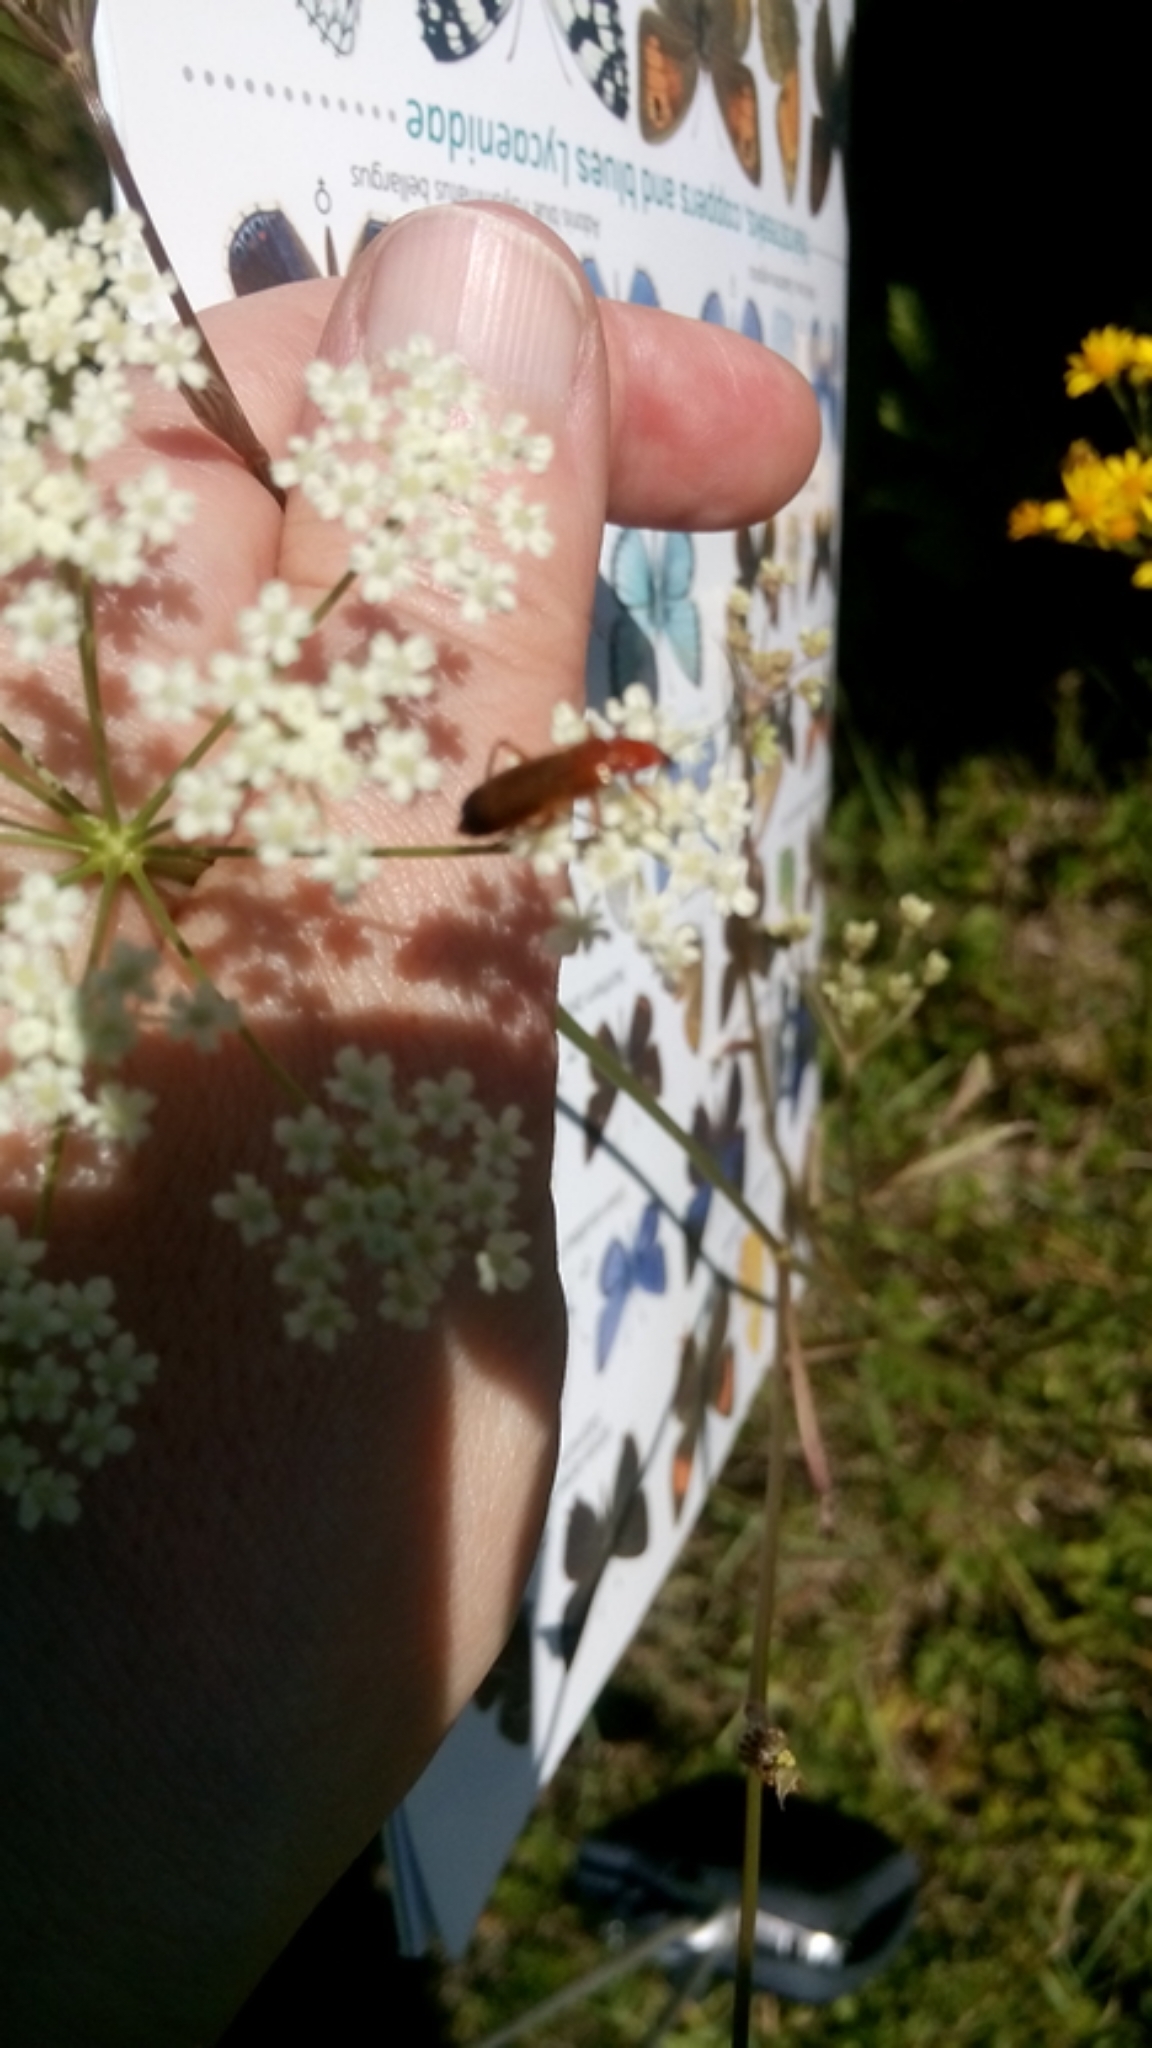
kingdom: Animalia
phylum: Arthropoda
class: Insecta
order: Coleoptera
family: Cantharidae
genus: Rhagonycha
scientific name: Rhagonycha fulva
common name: Common red soldier beetle
